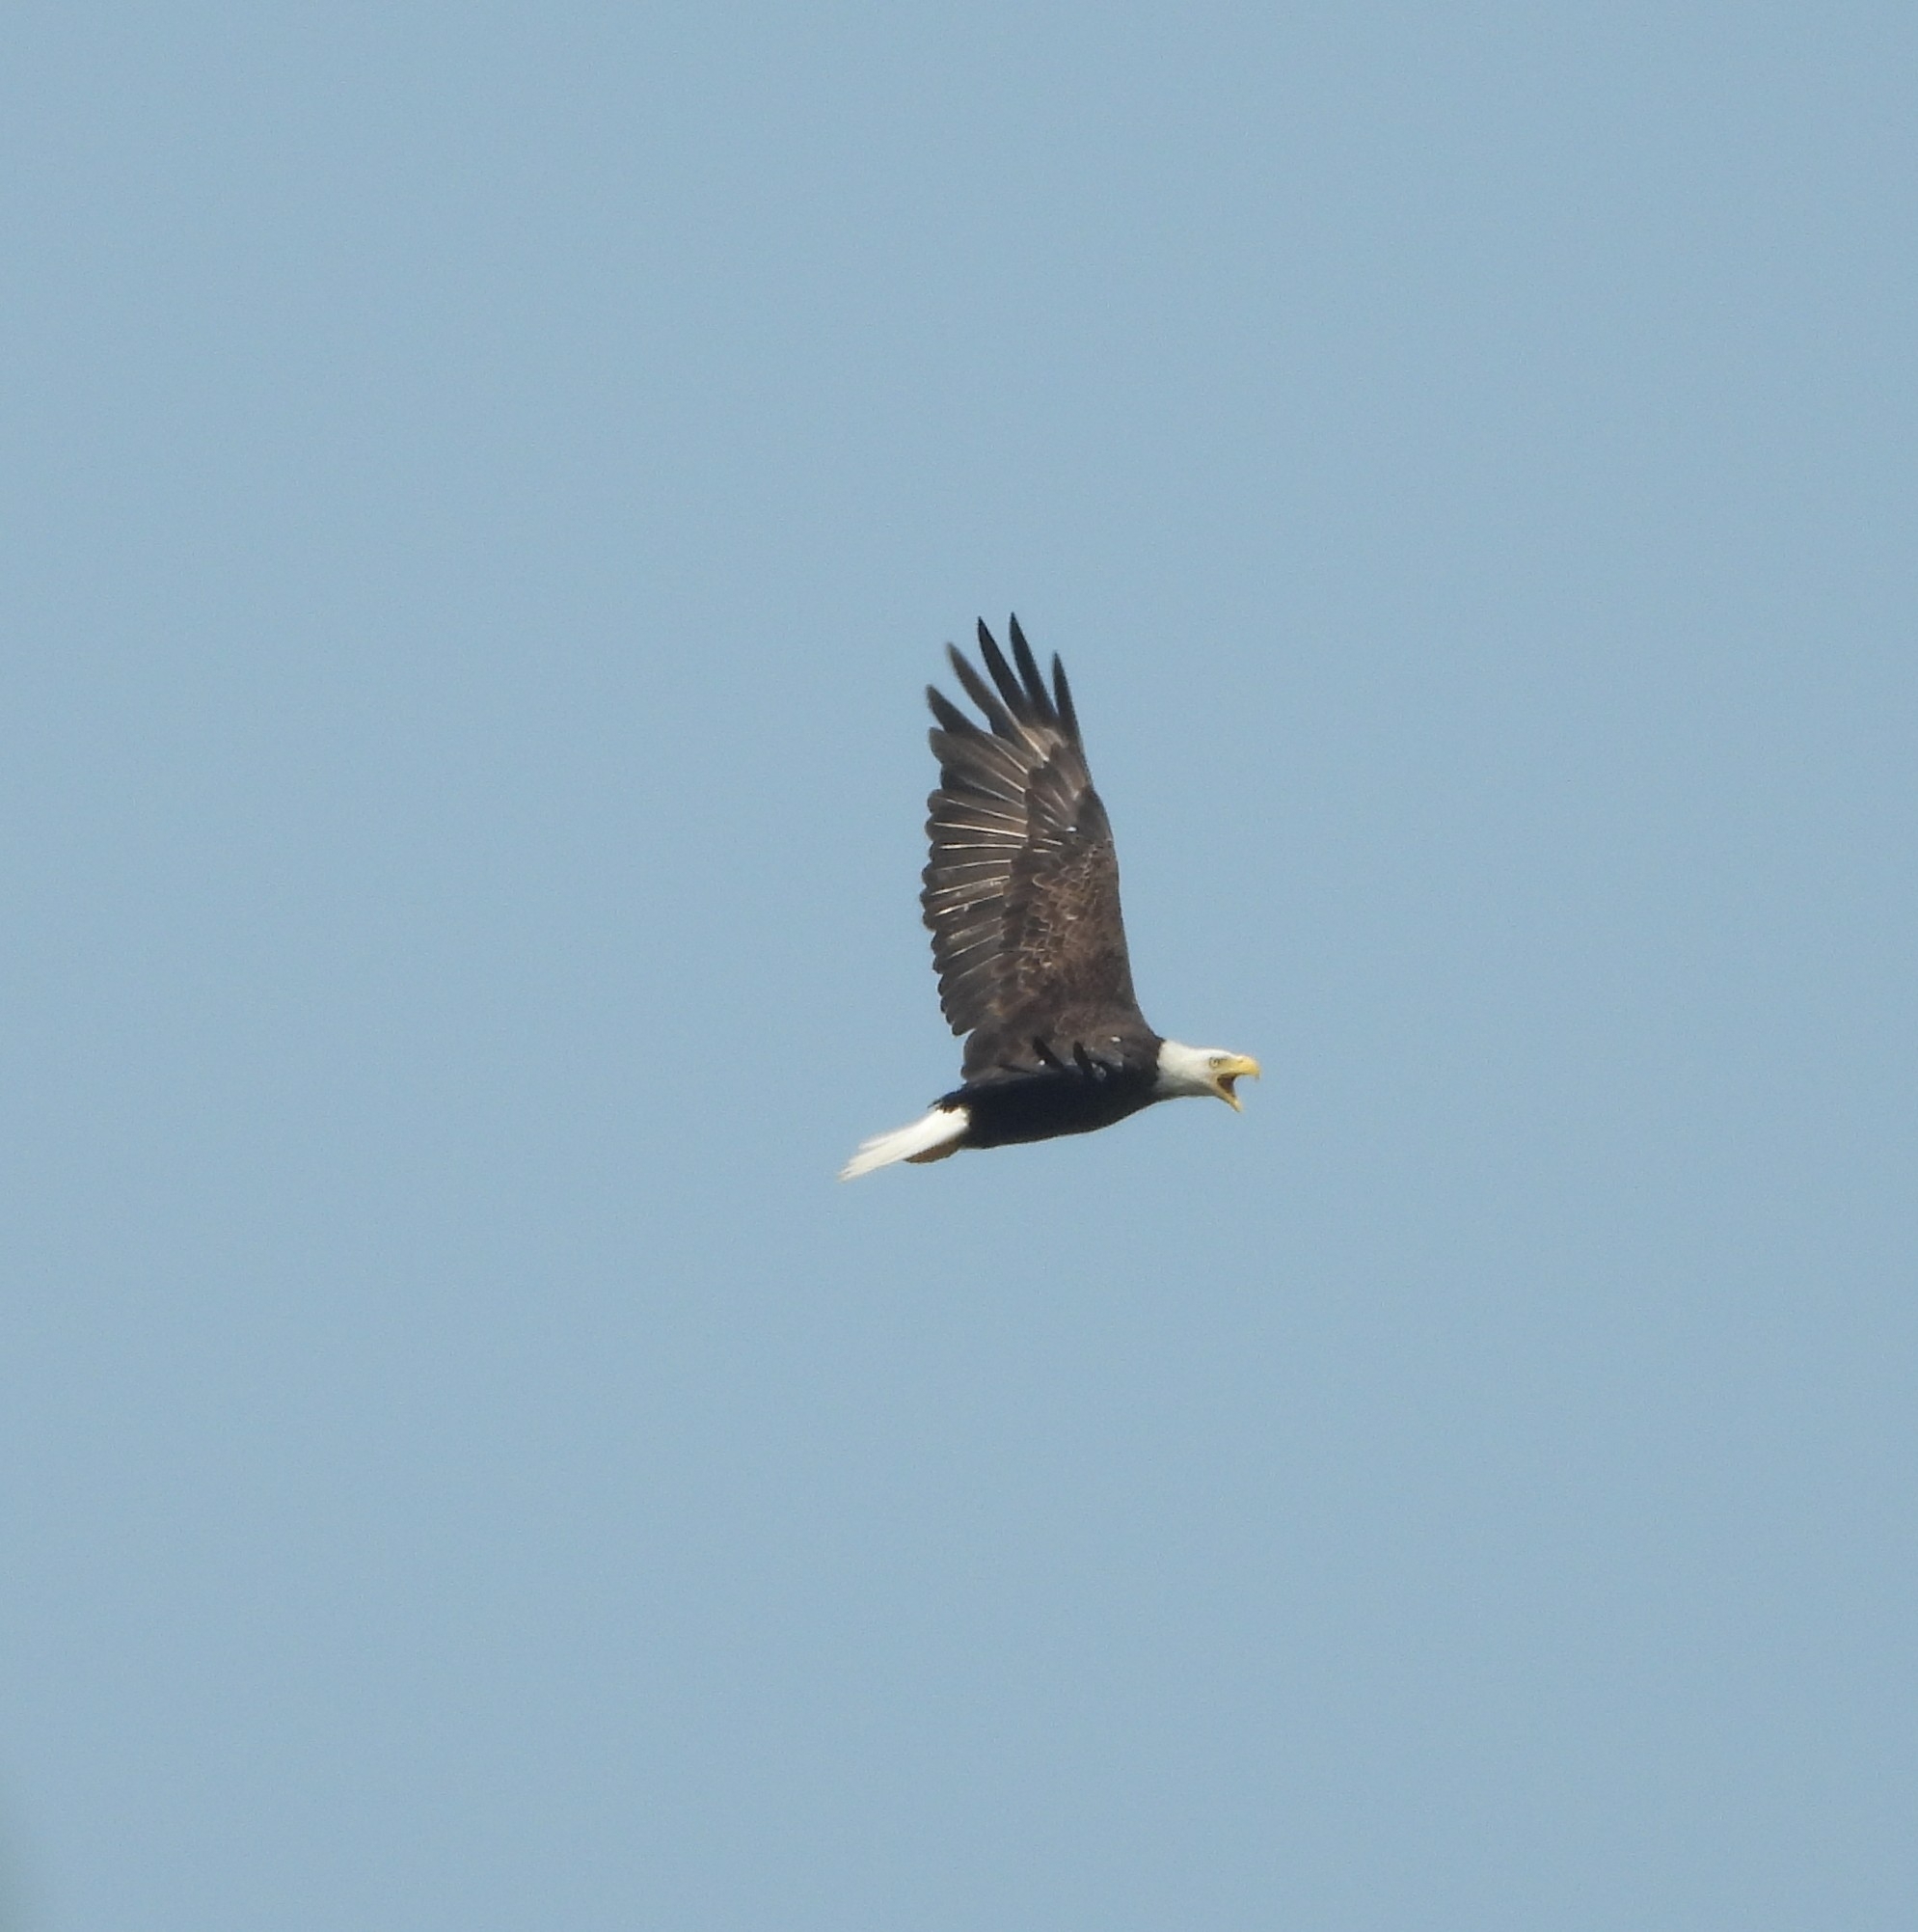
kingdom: Animalia
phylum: Chordata
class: Aves
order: Accipitriformes
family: Accipitridae
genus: Haliaeetus
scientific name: Haliaeetus leucocephalus
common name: Bald eagle
